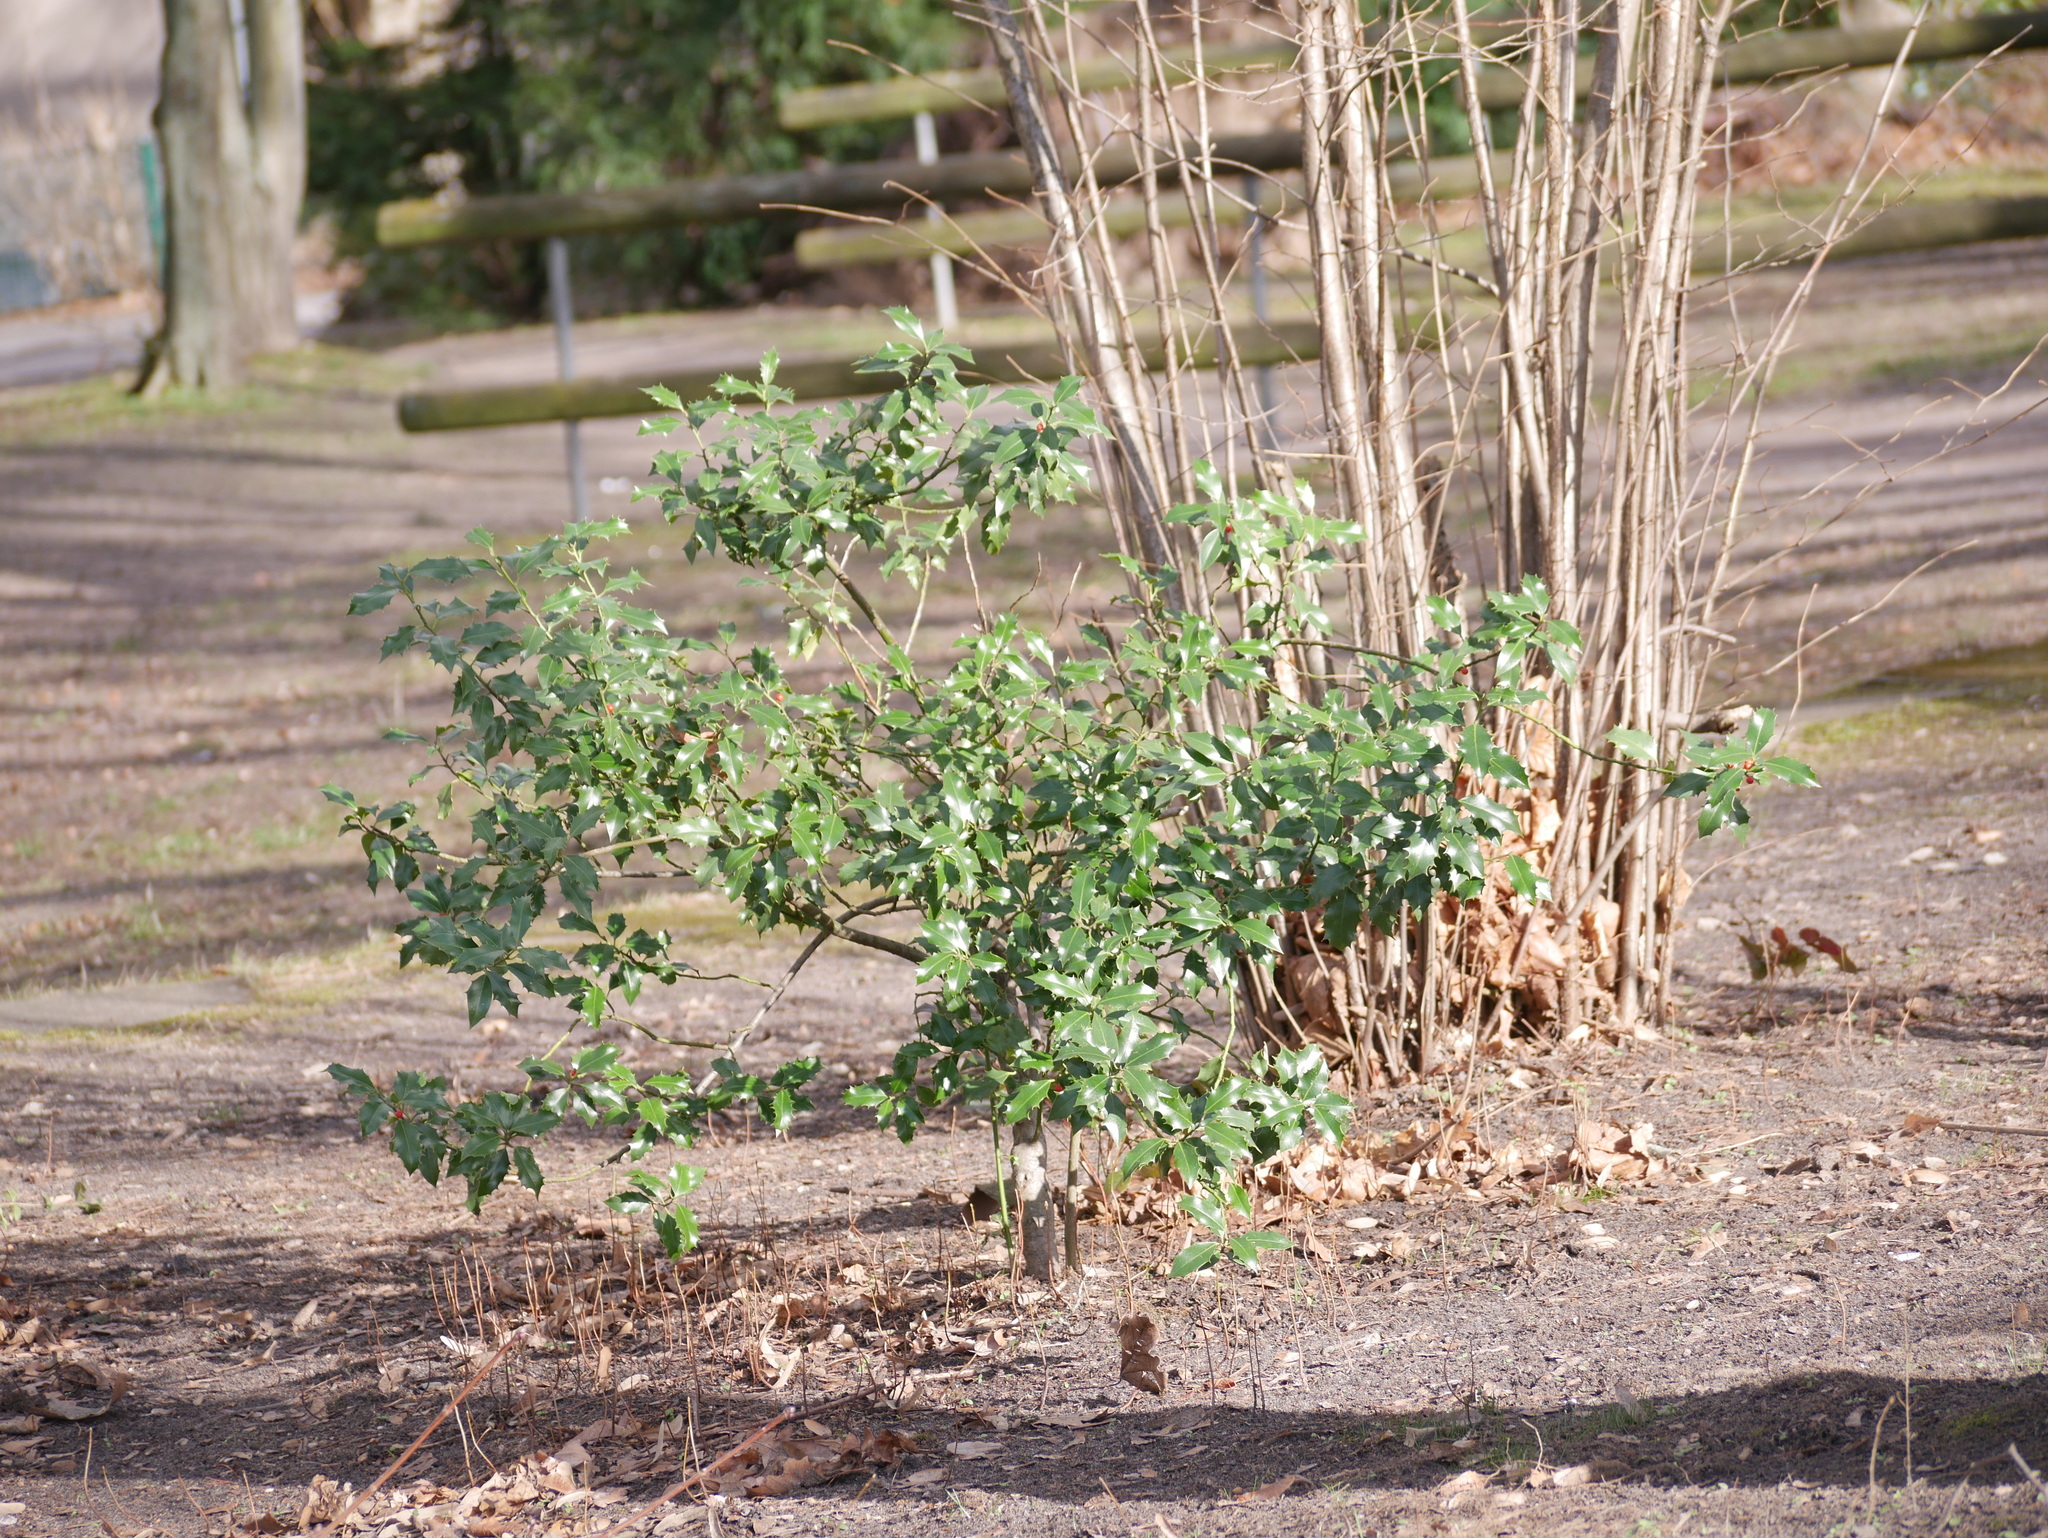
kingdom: Plantae
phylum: Tracheophyta
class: Magnoliopsida
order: Aquifoliales
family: Aquifoliaceae
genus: Ilex
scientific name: Ilex aquifolium
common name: English holly
